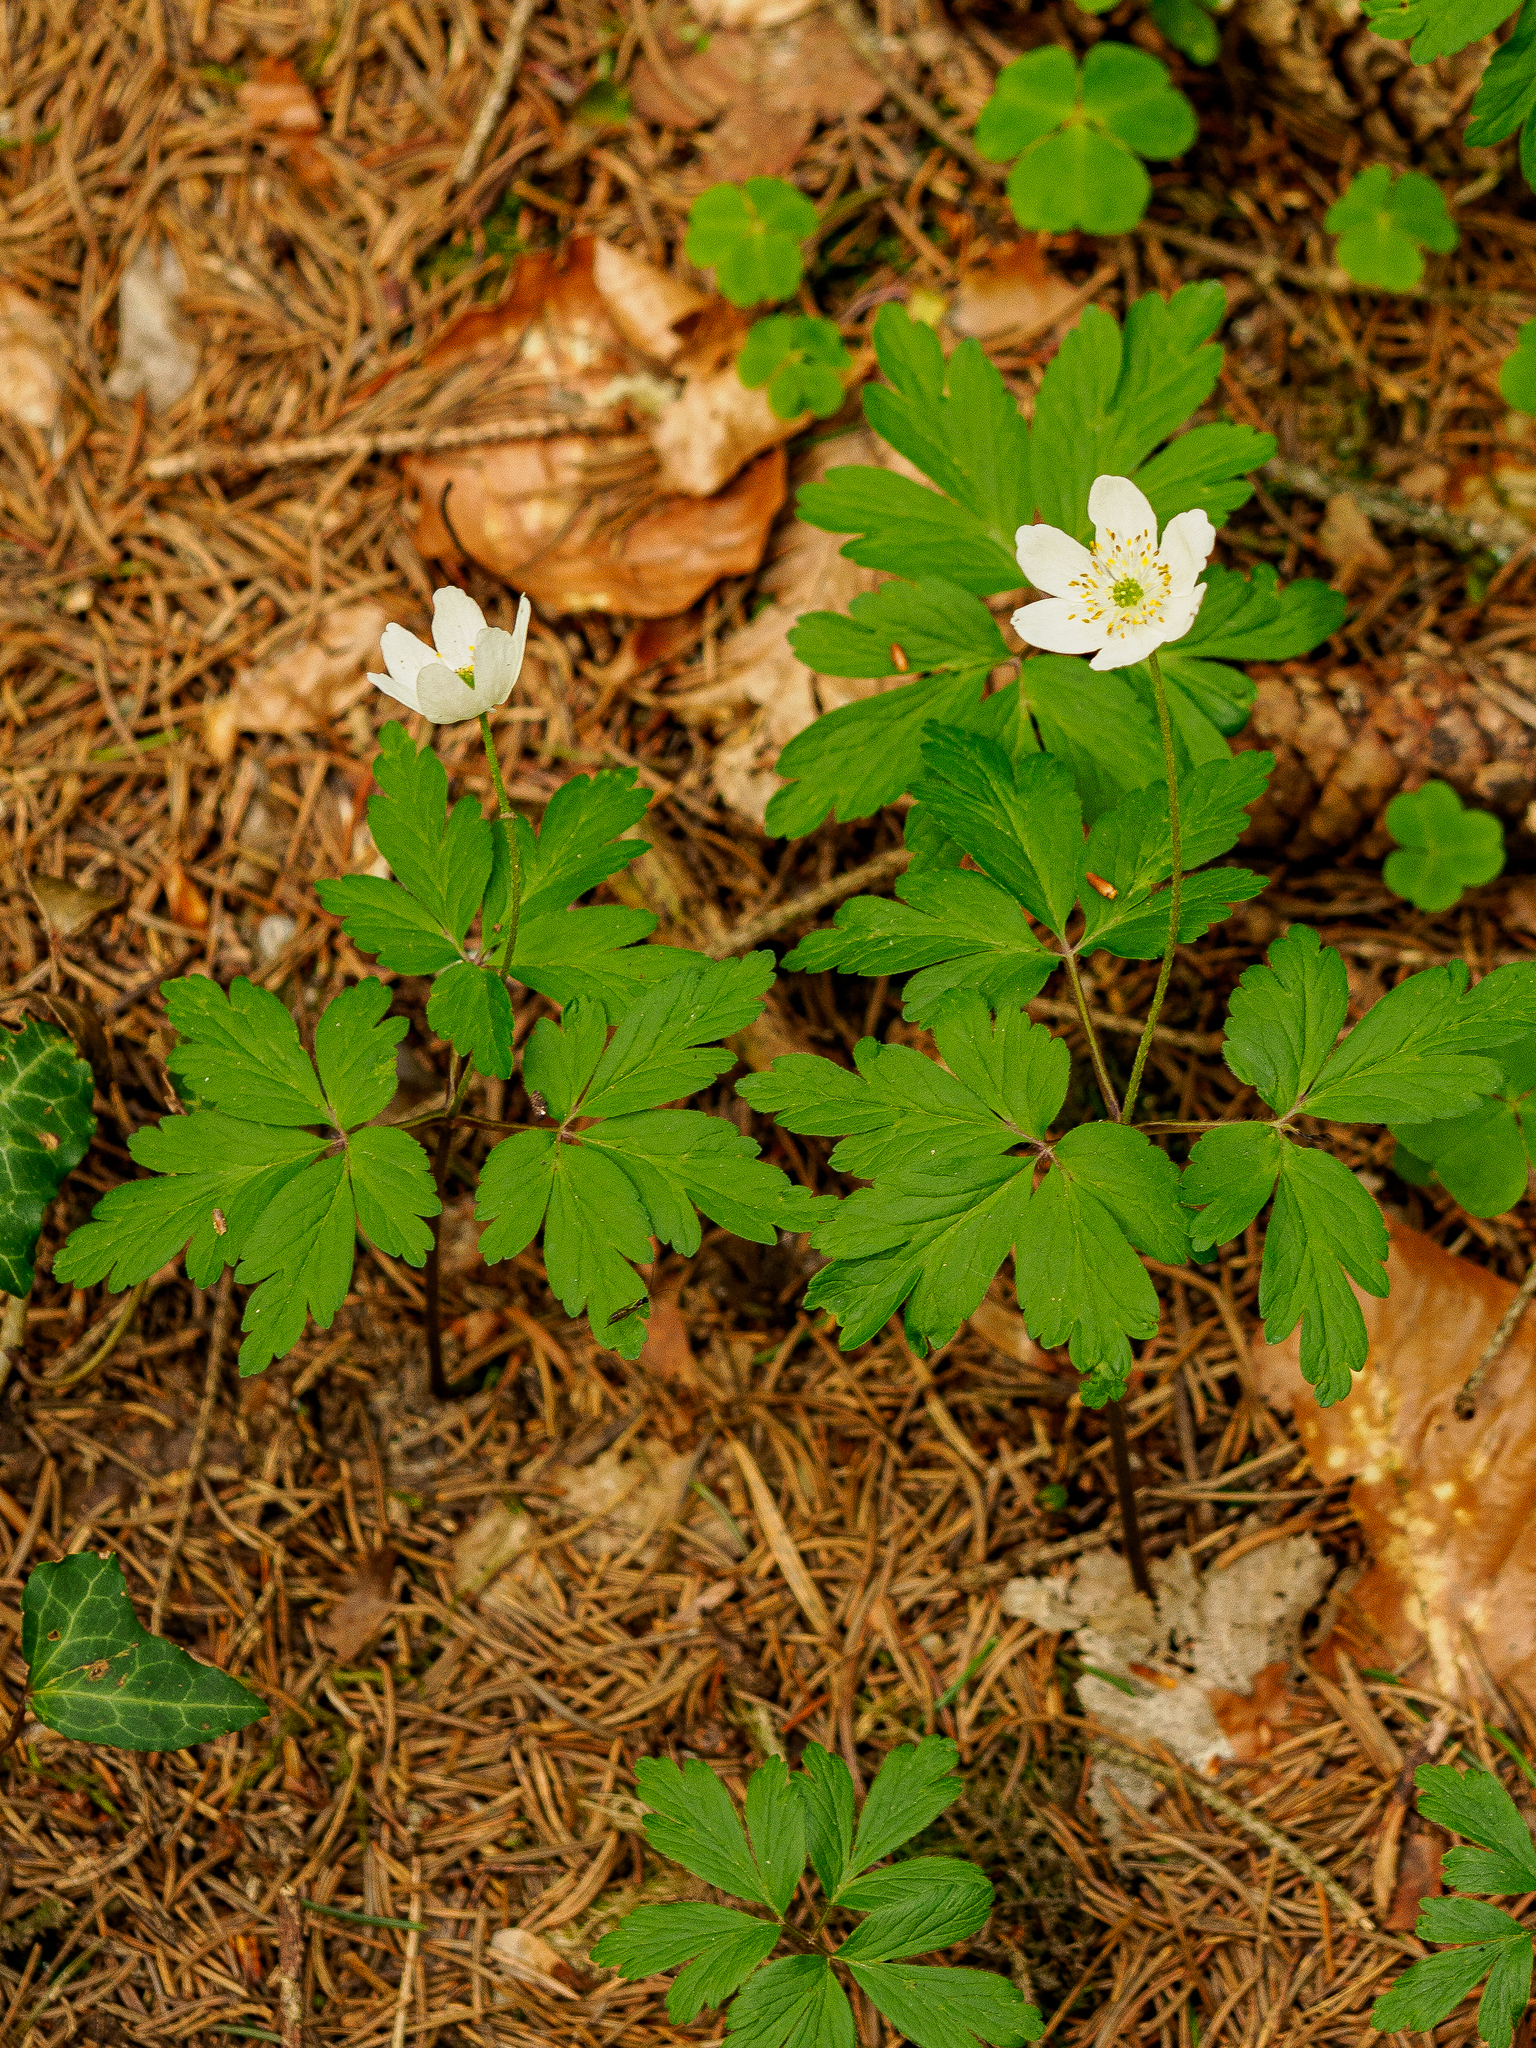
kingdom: Plantae
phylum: Tracheophyta
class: Magnoliopsida
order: Ranunculales
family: Ranunculaceae
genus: Anemone
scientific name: Anemone nemorosa
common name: Wood anemone
